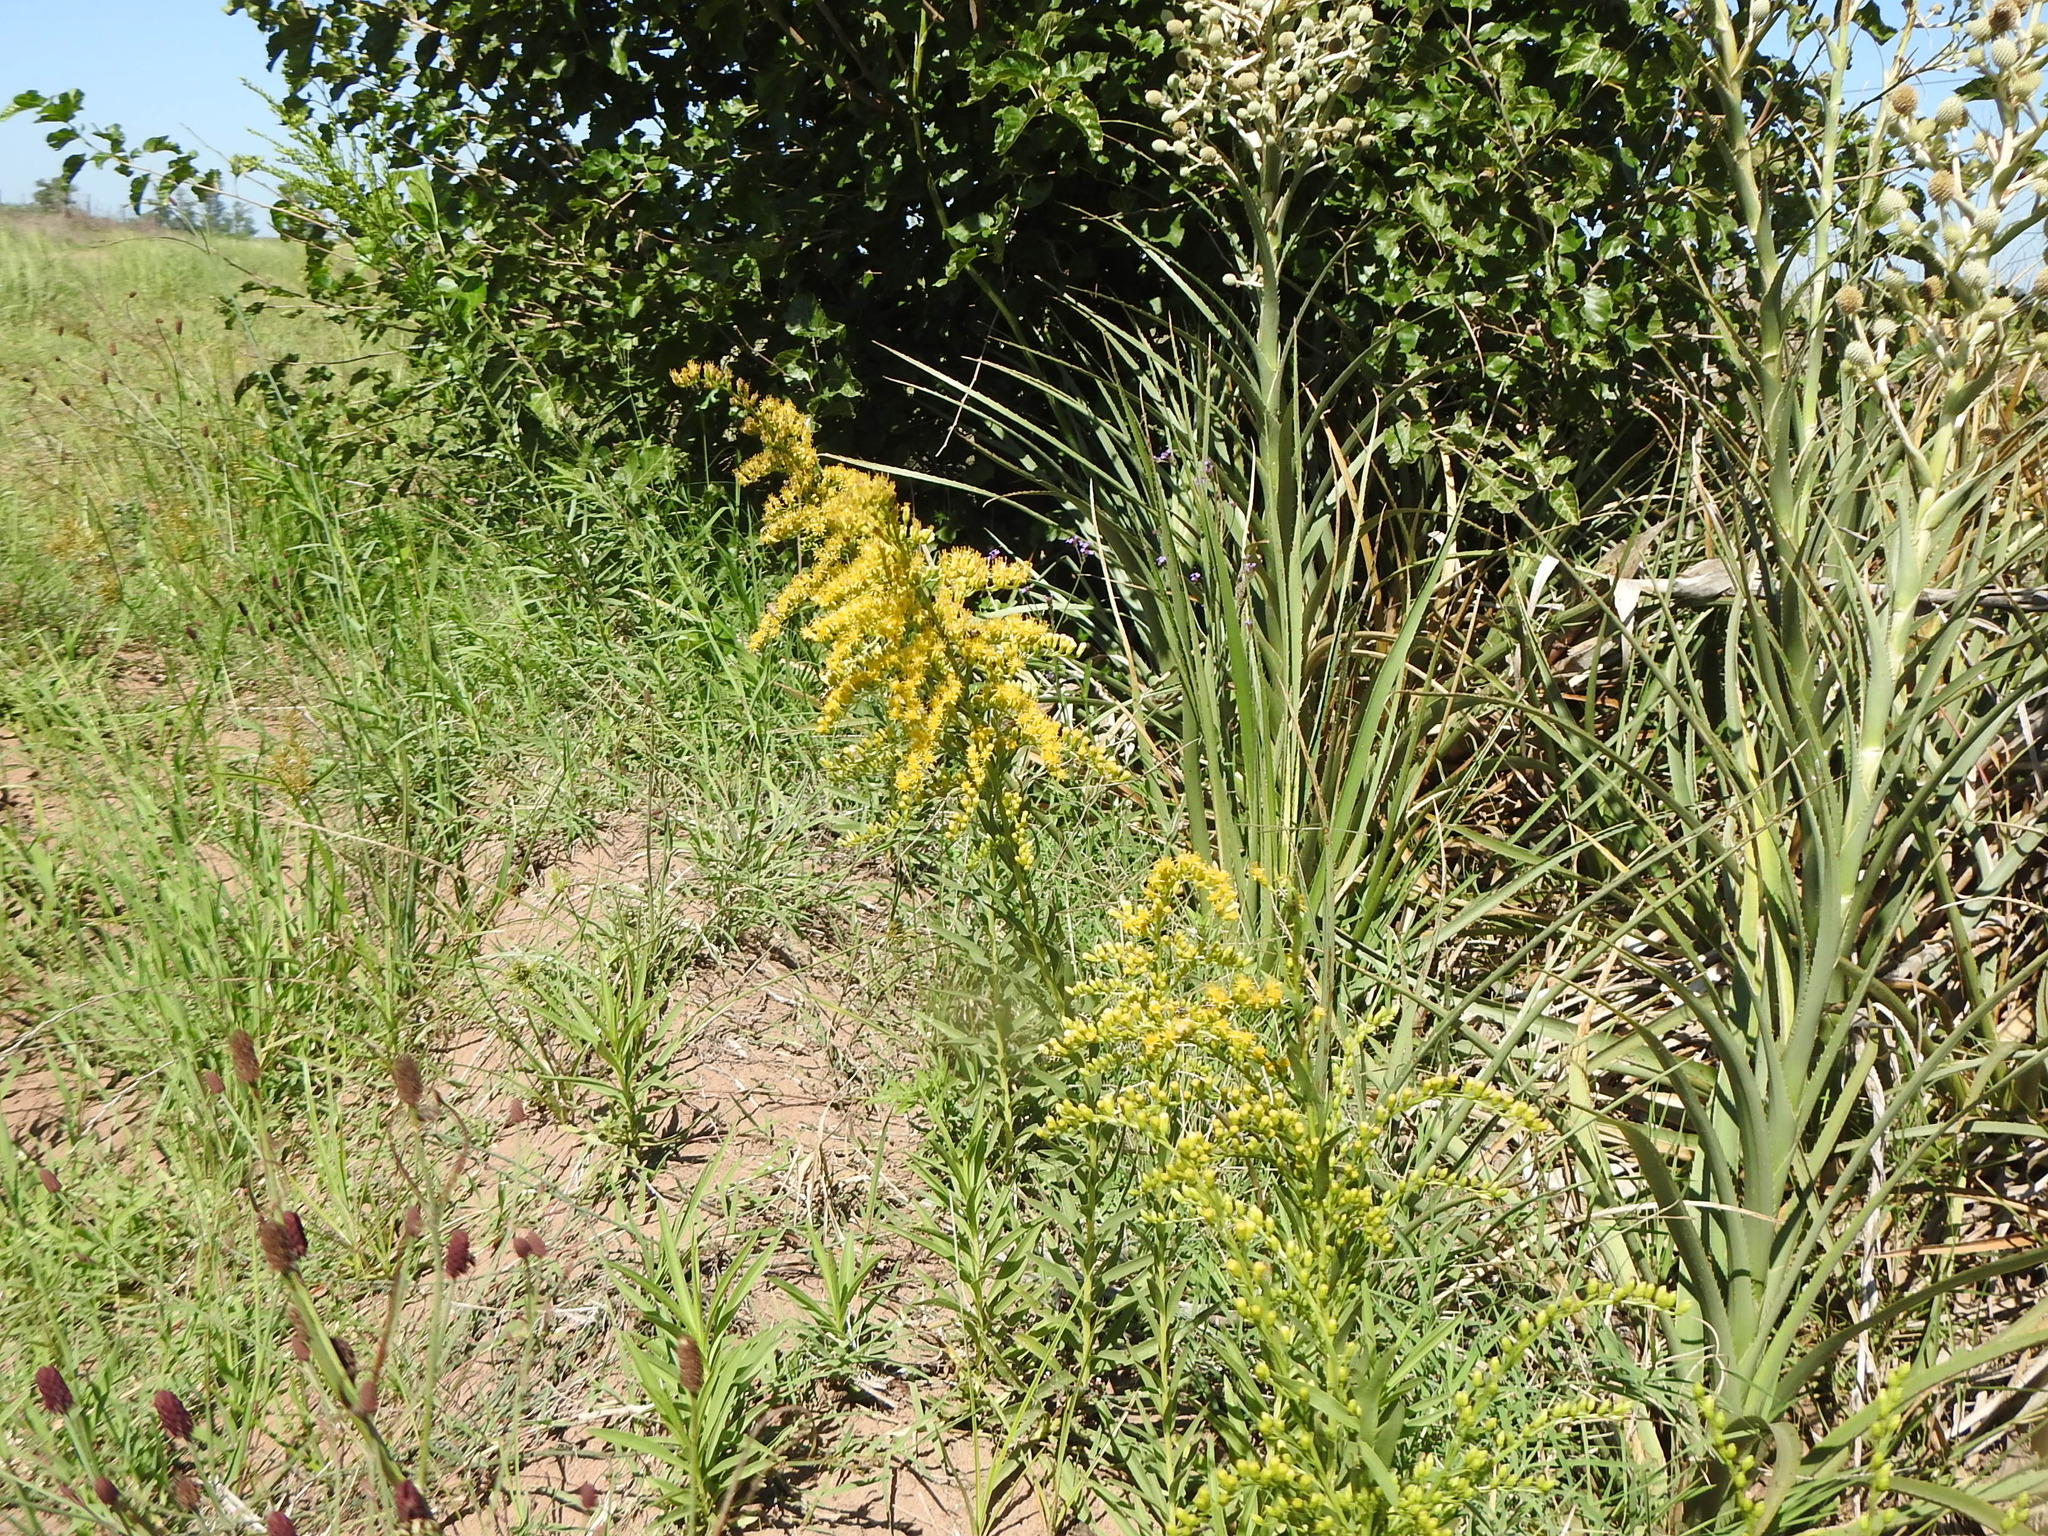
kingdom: Plantae
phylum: Tracheophyta
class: Magnoliopsida
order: Asterales
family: Asteraceae
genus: Solidago
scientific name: Solidago chilensis
